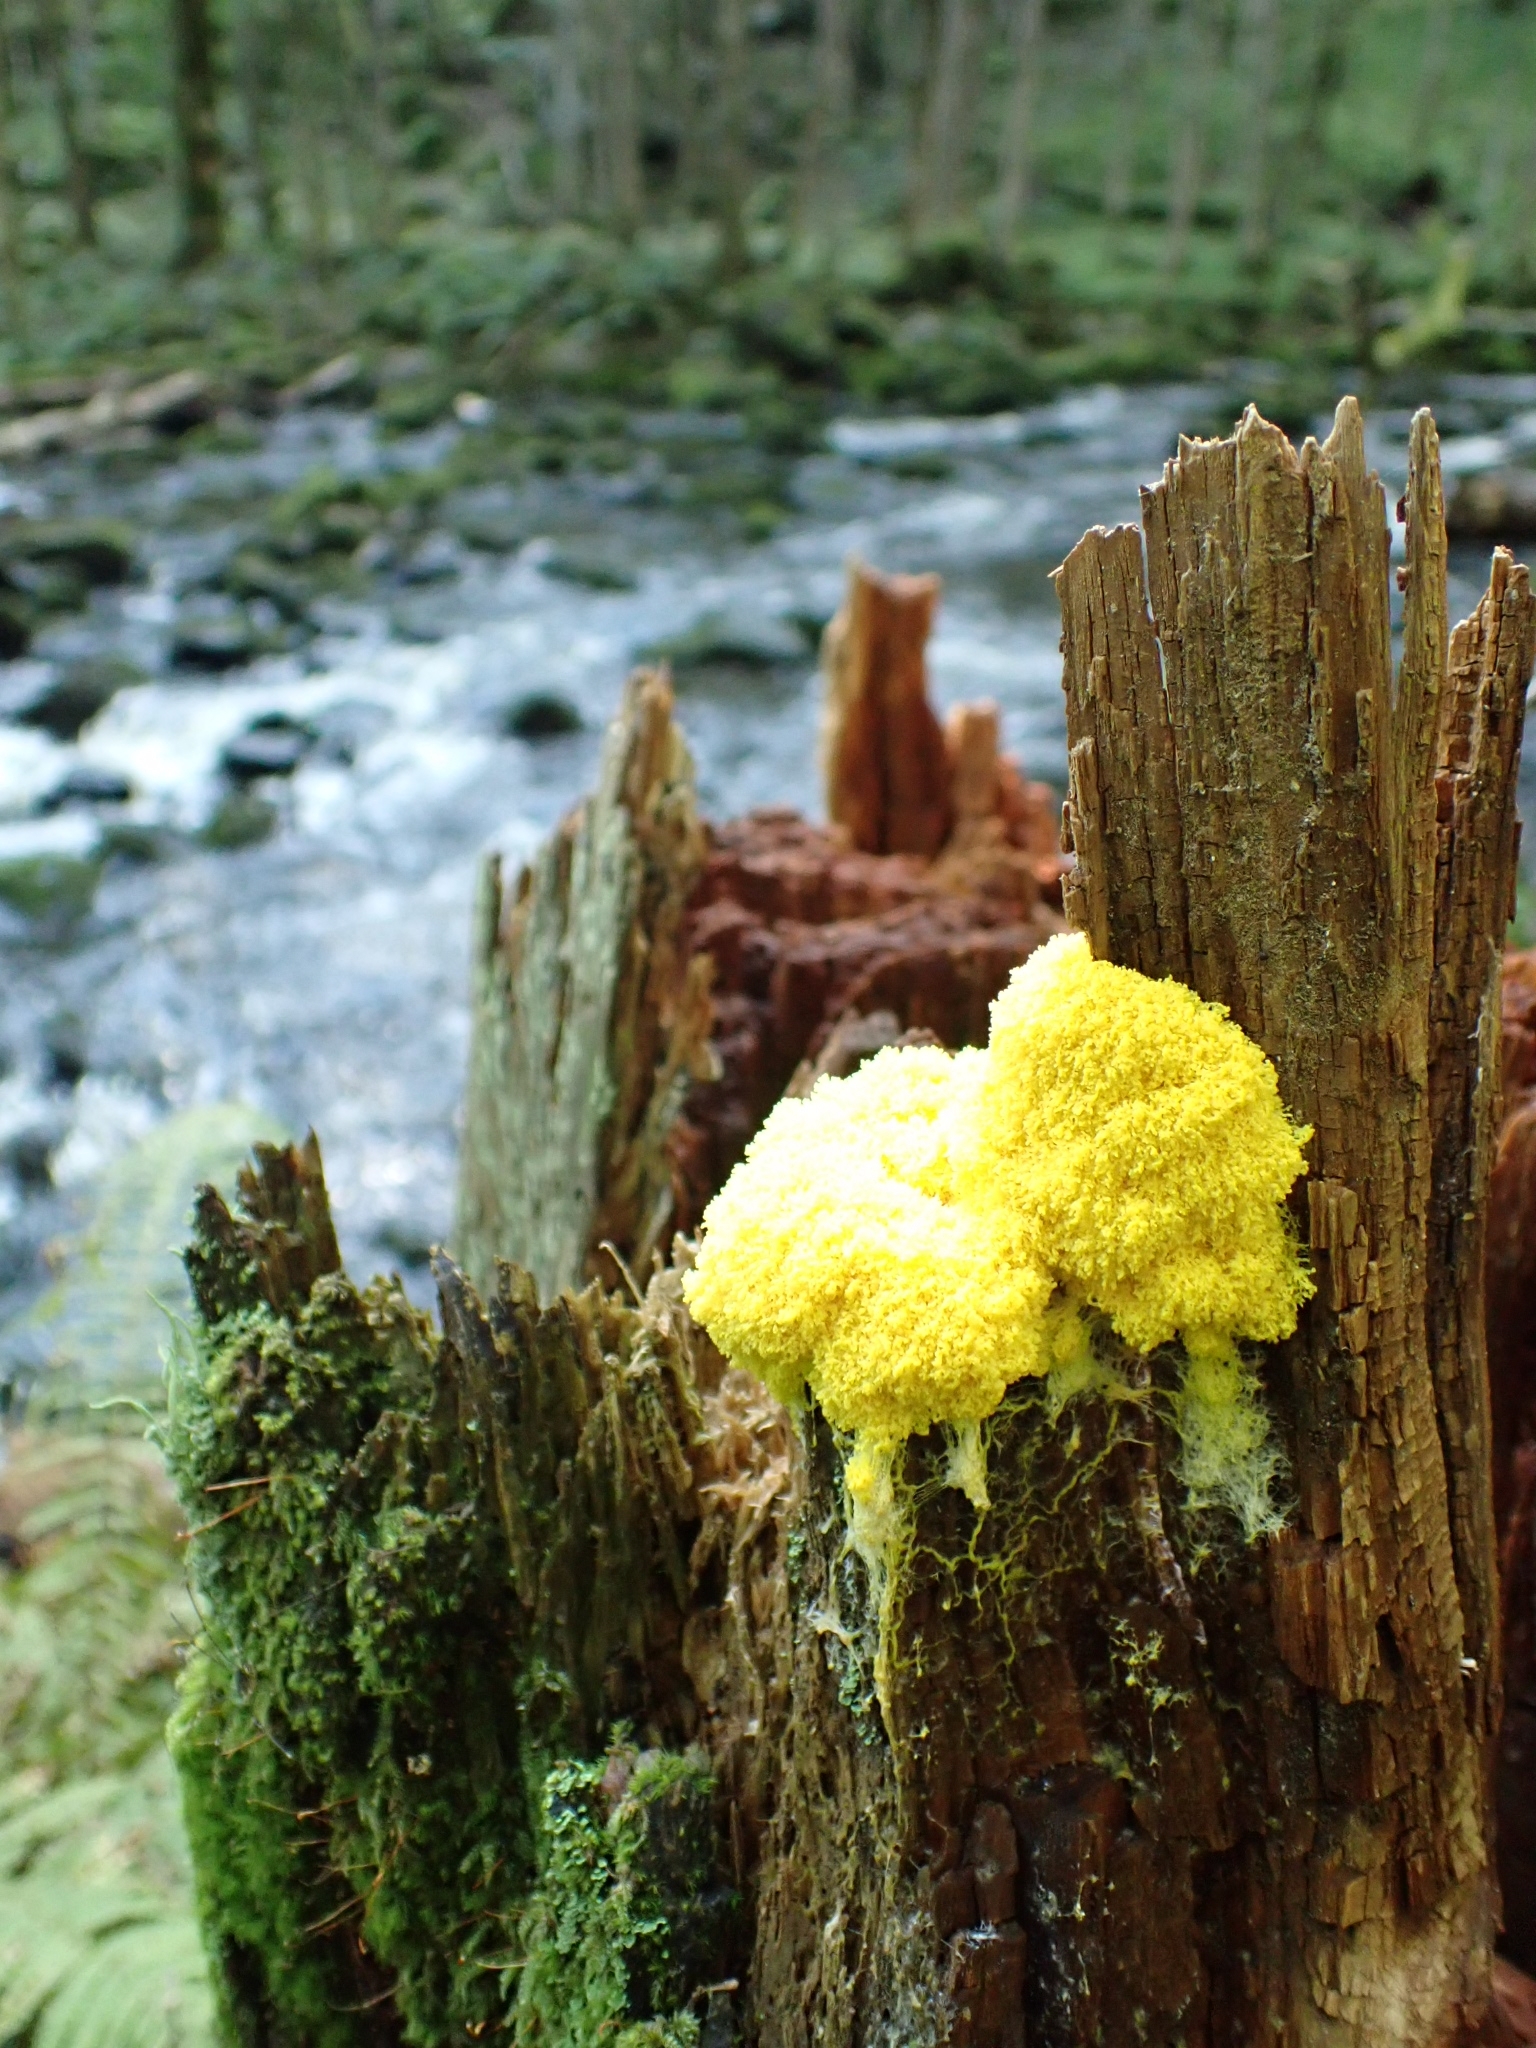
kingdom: Protozoa
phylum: Mycetozoa
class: Myxomycetes
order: Physarales
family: Physaraceae
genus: Fuligo
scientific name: Fuligo septica
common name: Dog vomit slime mold
